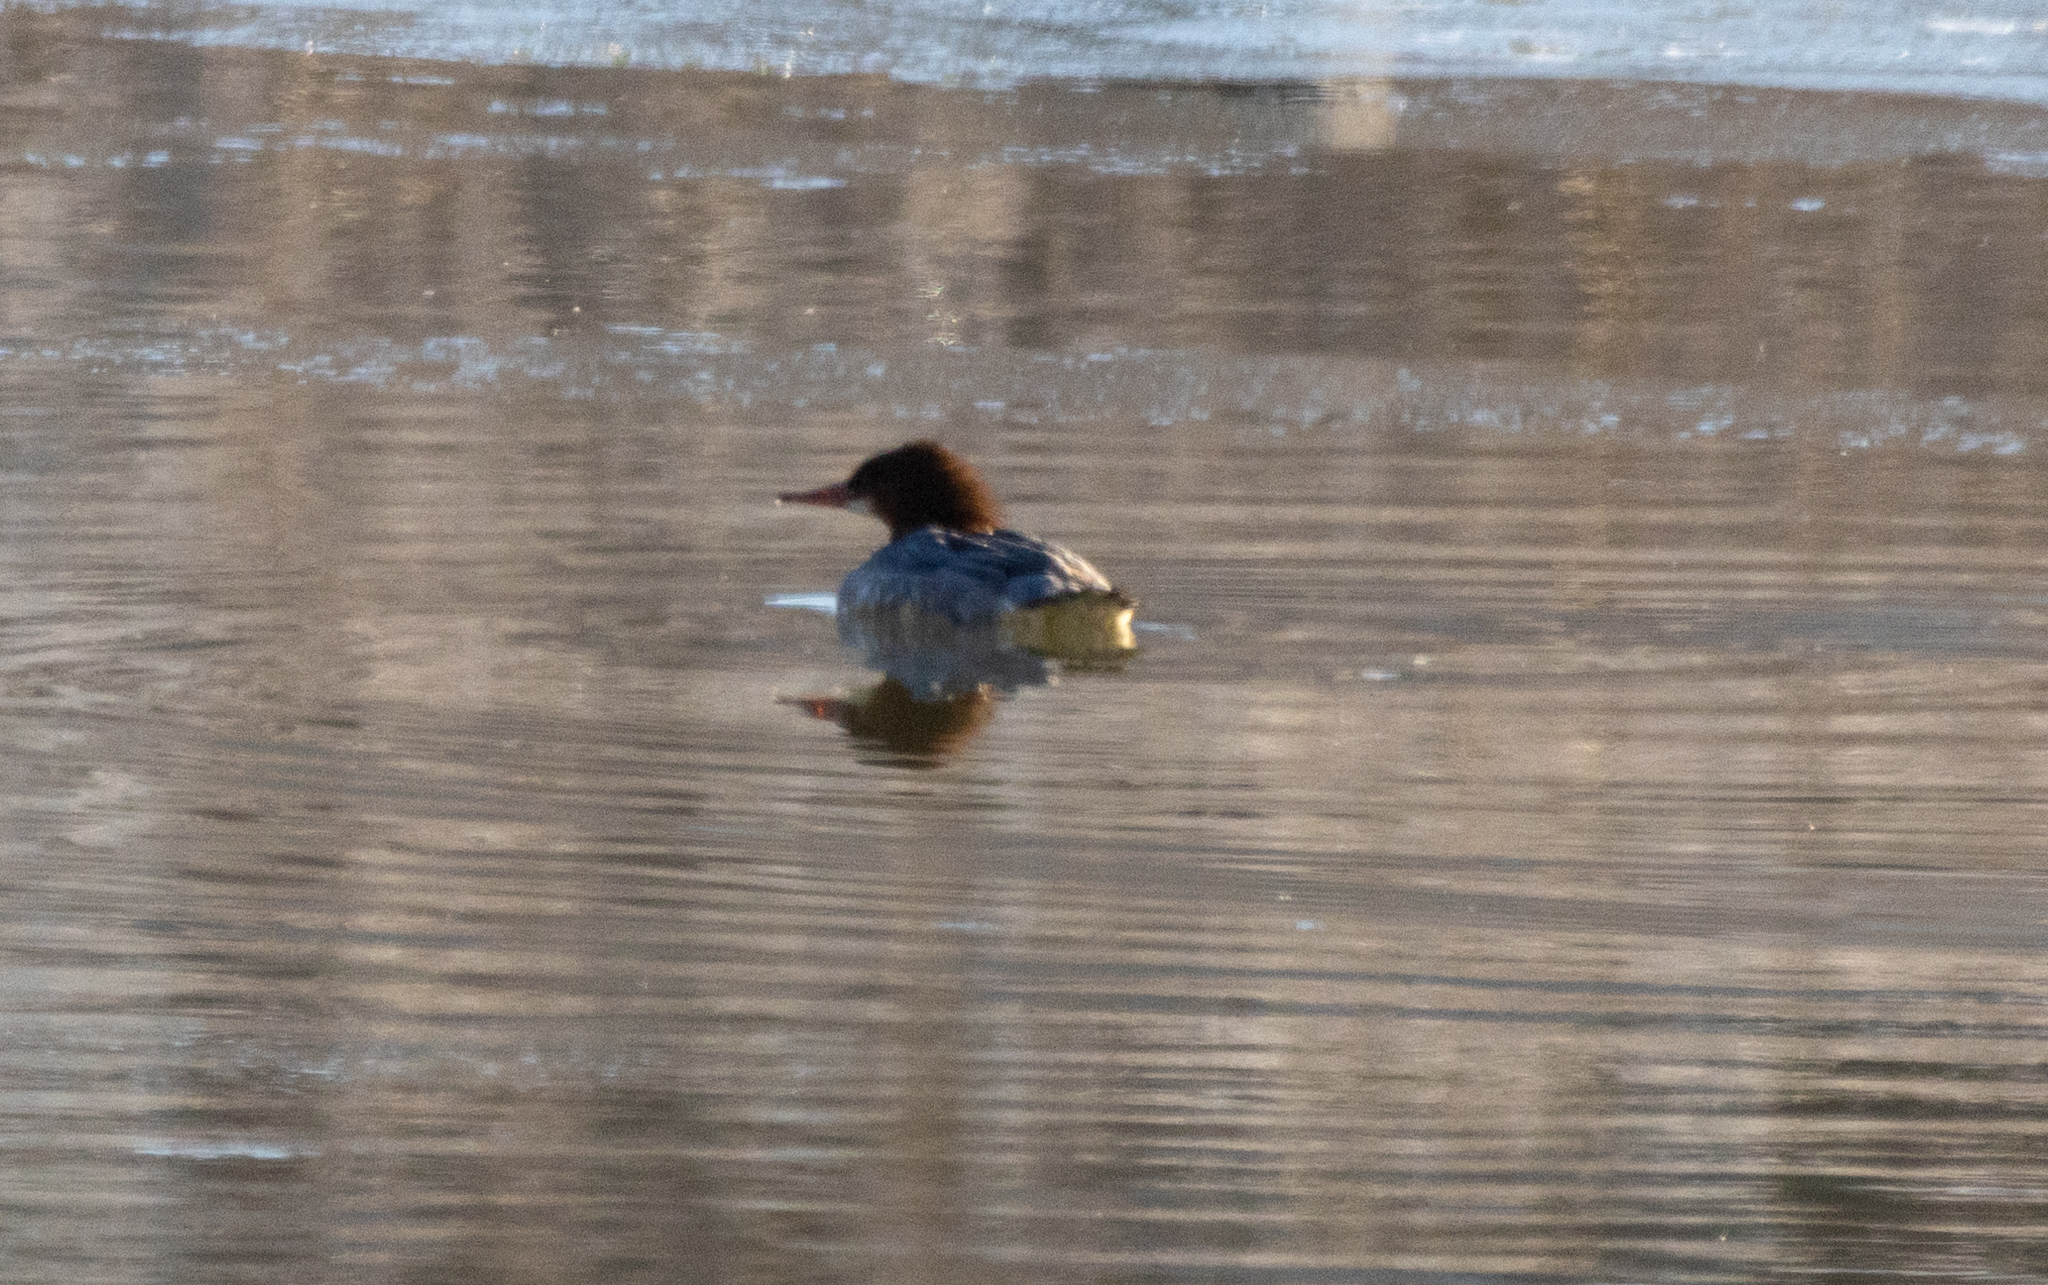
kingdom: Animalia
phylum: Chordata
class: Aves
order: Anseriformes
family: Anatidae
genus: Mergus
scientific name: Mergus merganser
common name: Common merganser
